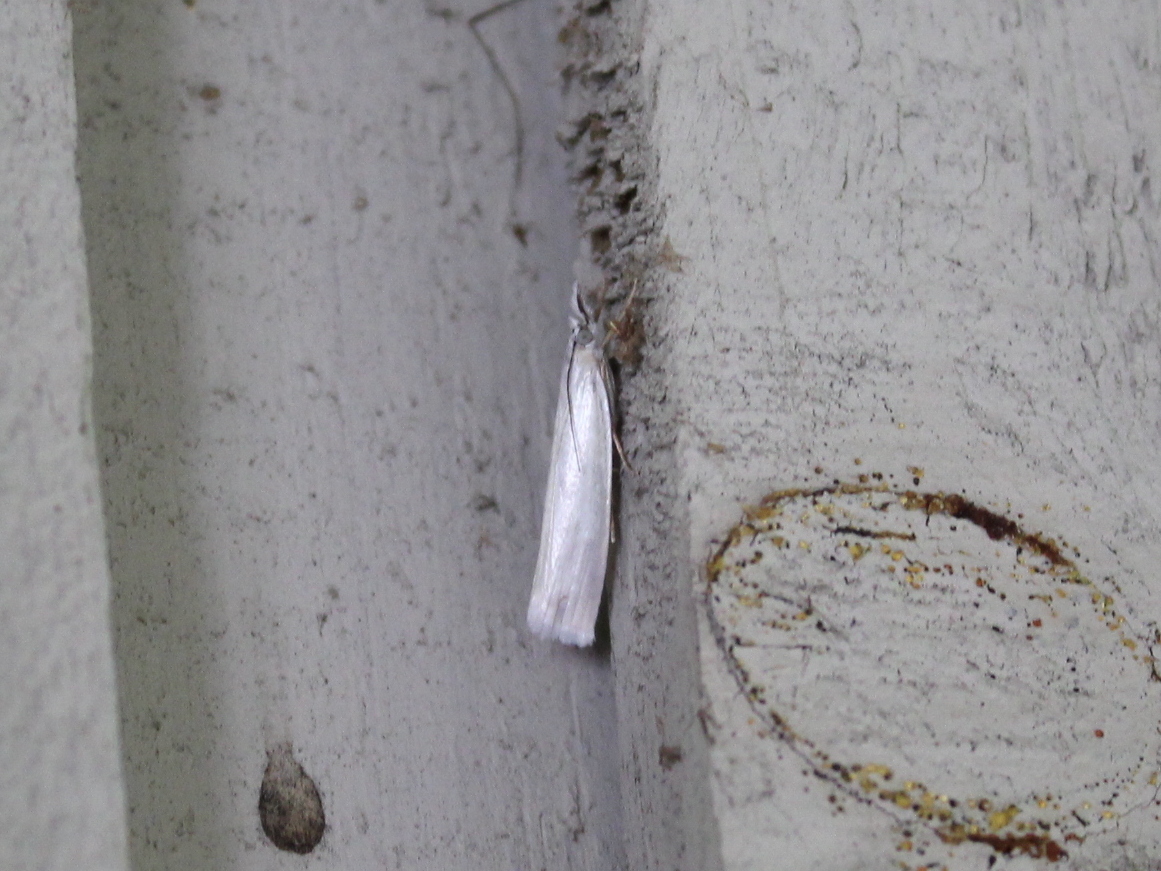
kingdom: Animalia
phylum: Arthropoda
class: Insecta
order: Lepidoptera
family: Crambidae
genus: Crambus
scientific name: Crambus perlellus
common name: Yellow satin veneer
